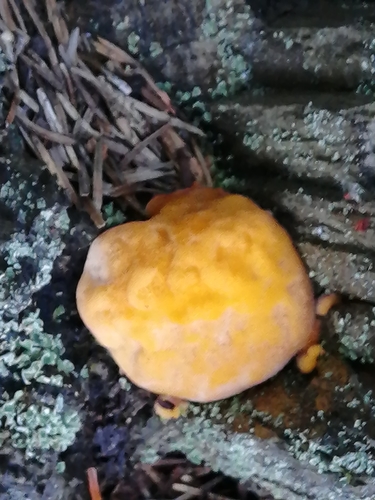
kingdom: Fungi
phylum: Basidiomycota
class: Agaricomycetes
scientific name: Agaricomycetes
